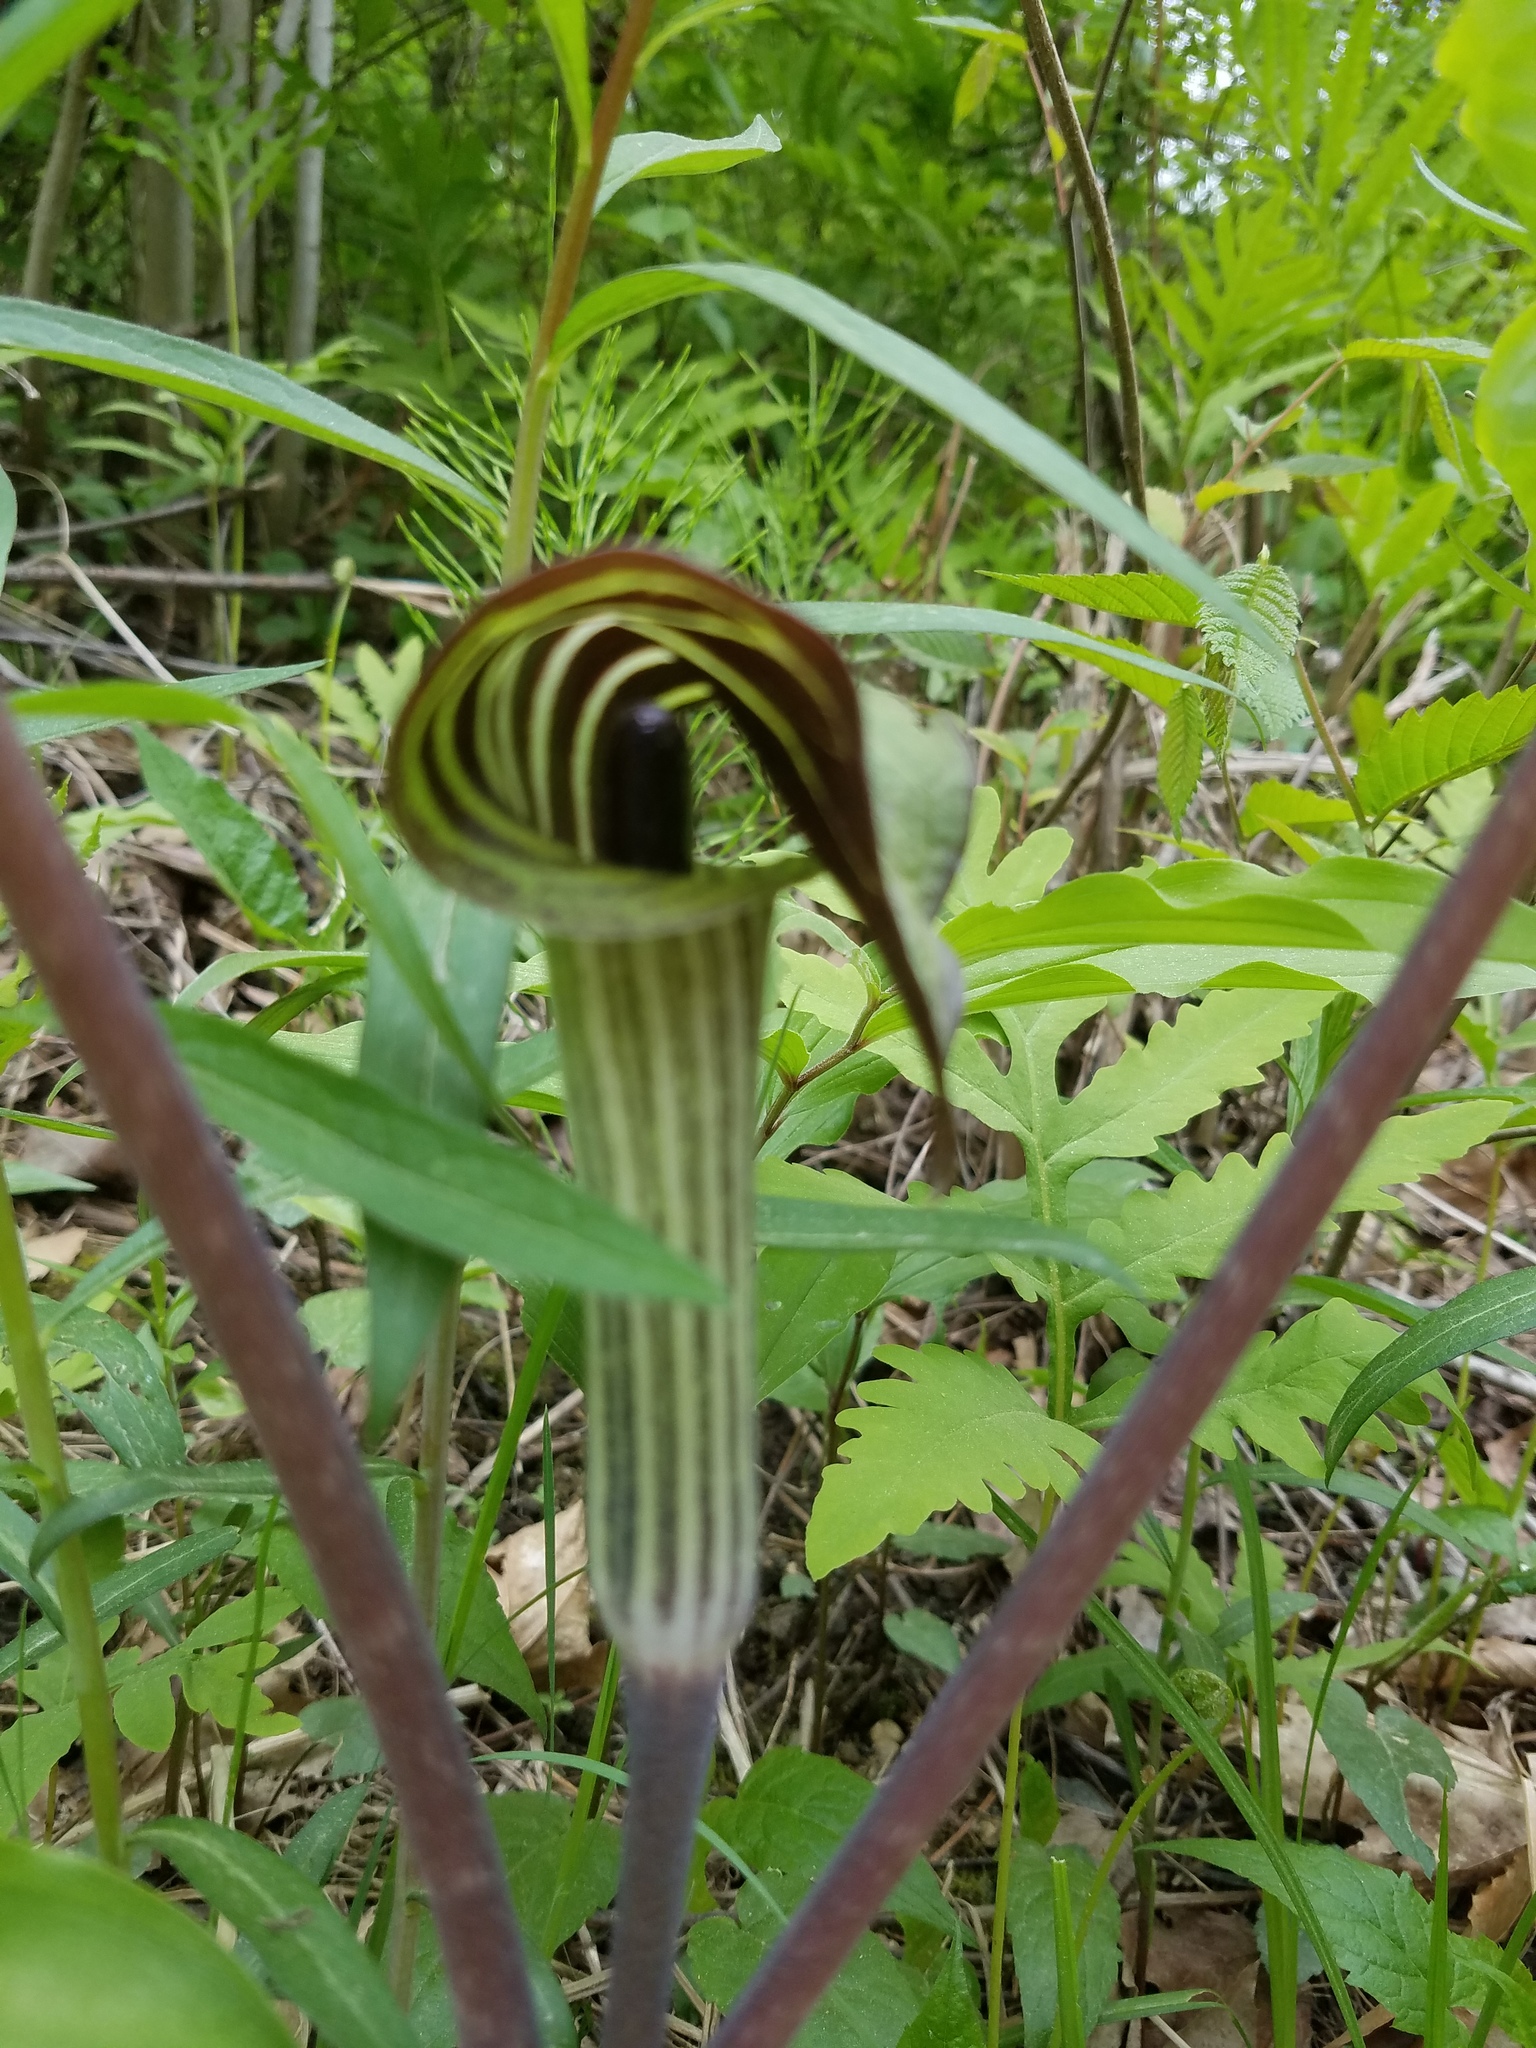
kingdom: Plantae
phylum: Tracheophyta
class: Liliopsida
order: Alismatales
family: Araceae
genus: Arisaema
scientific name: Arisaema triphyllum
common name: Jack-in-the-pulpit
